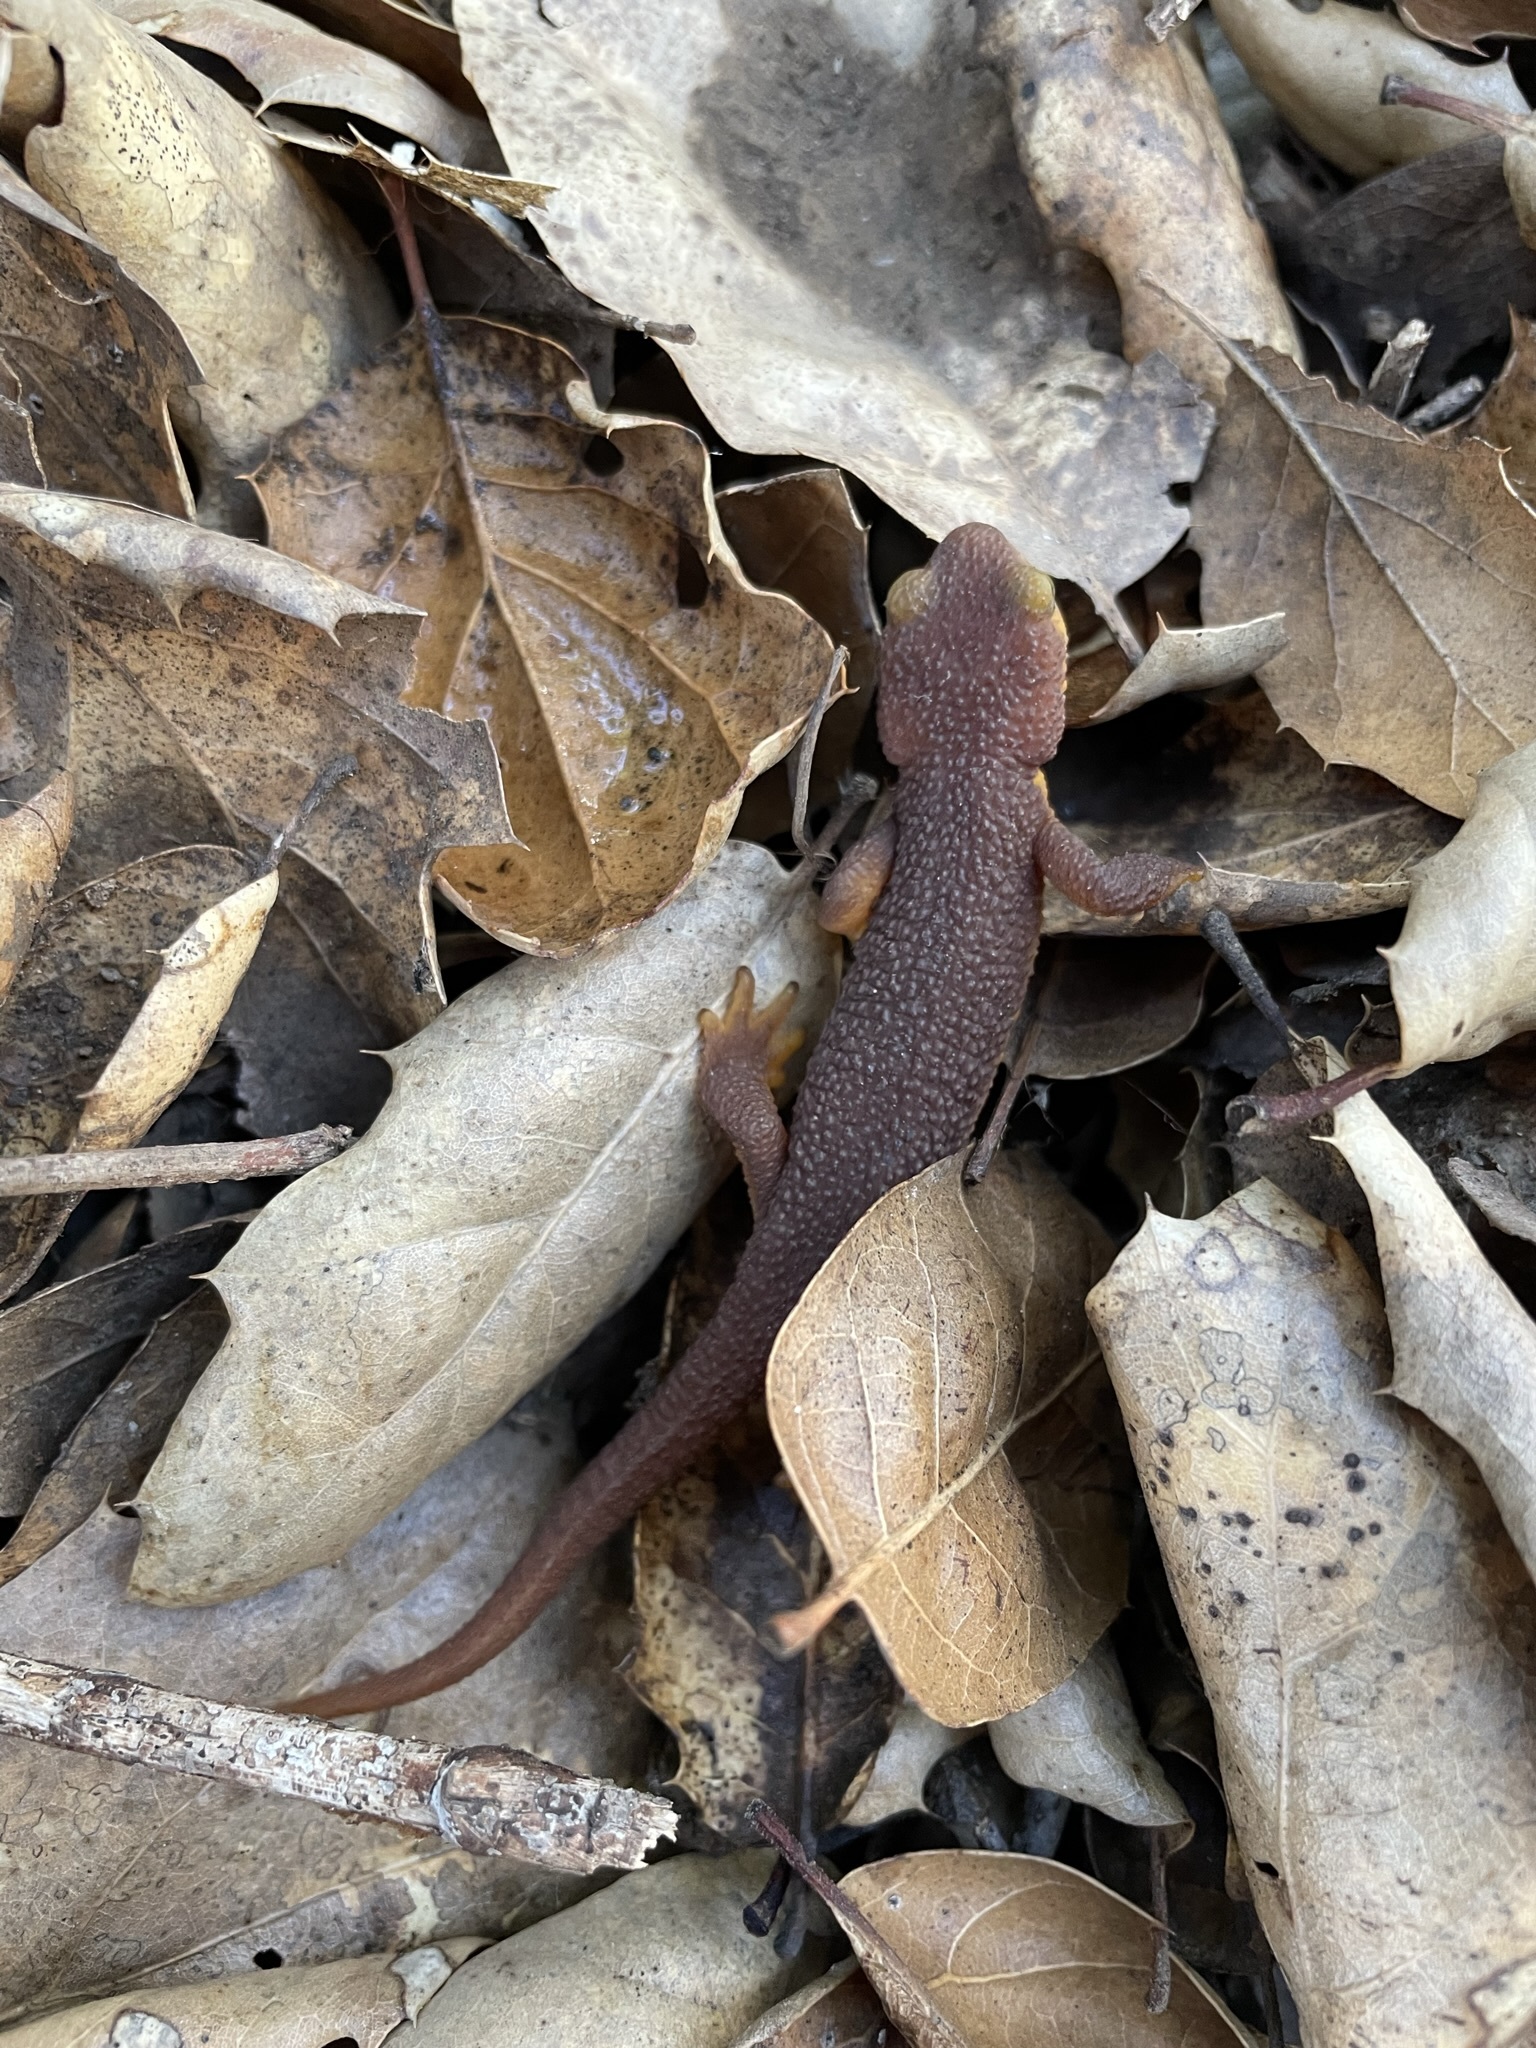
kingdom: Animalia
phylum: Chordata
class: Amphibia
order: Caudata
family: Salamandridae
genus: Taricha
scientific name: Taricha torosa
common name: California newt
